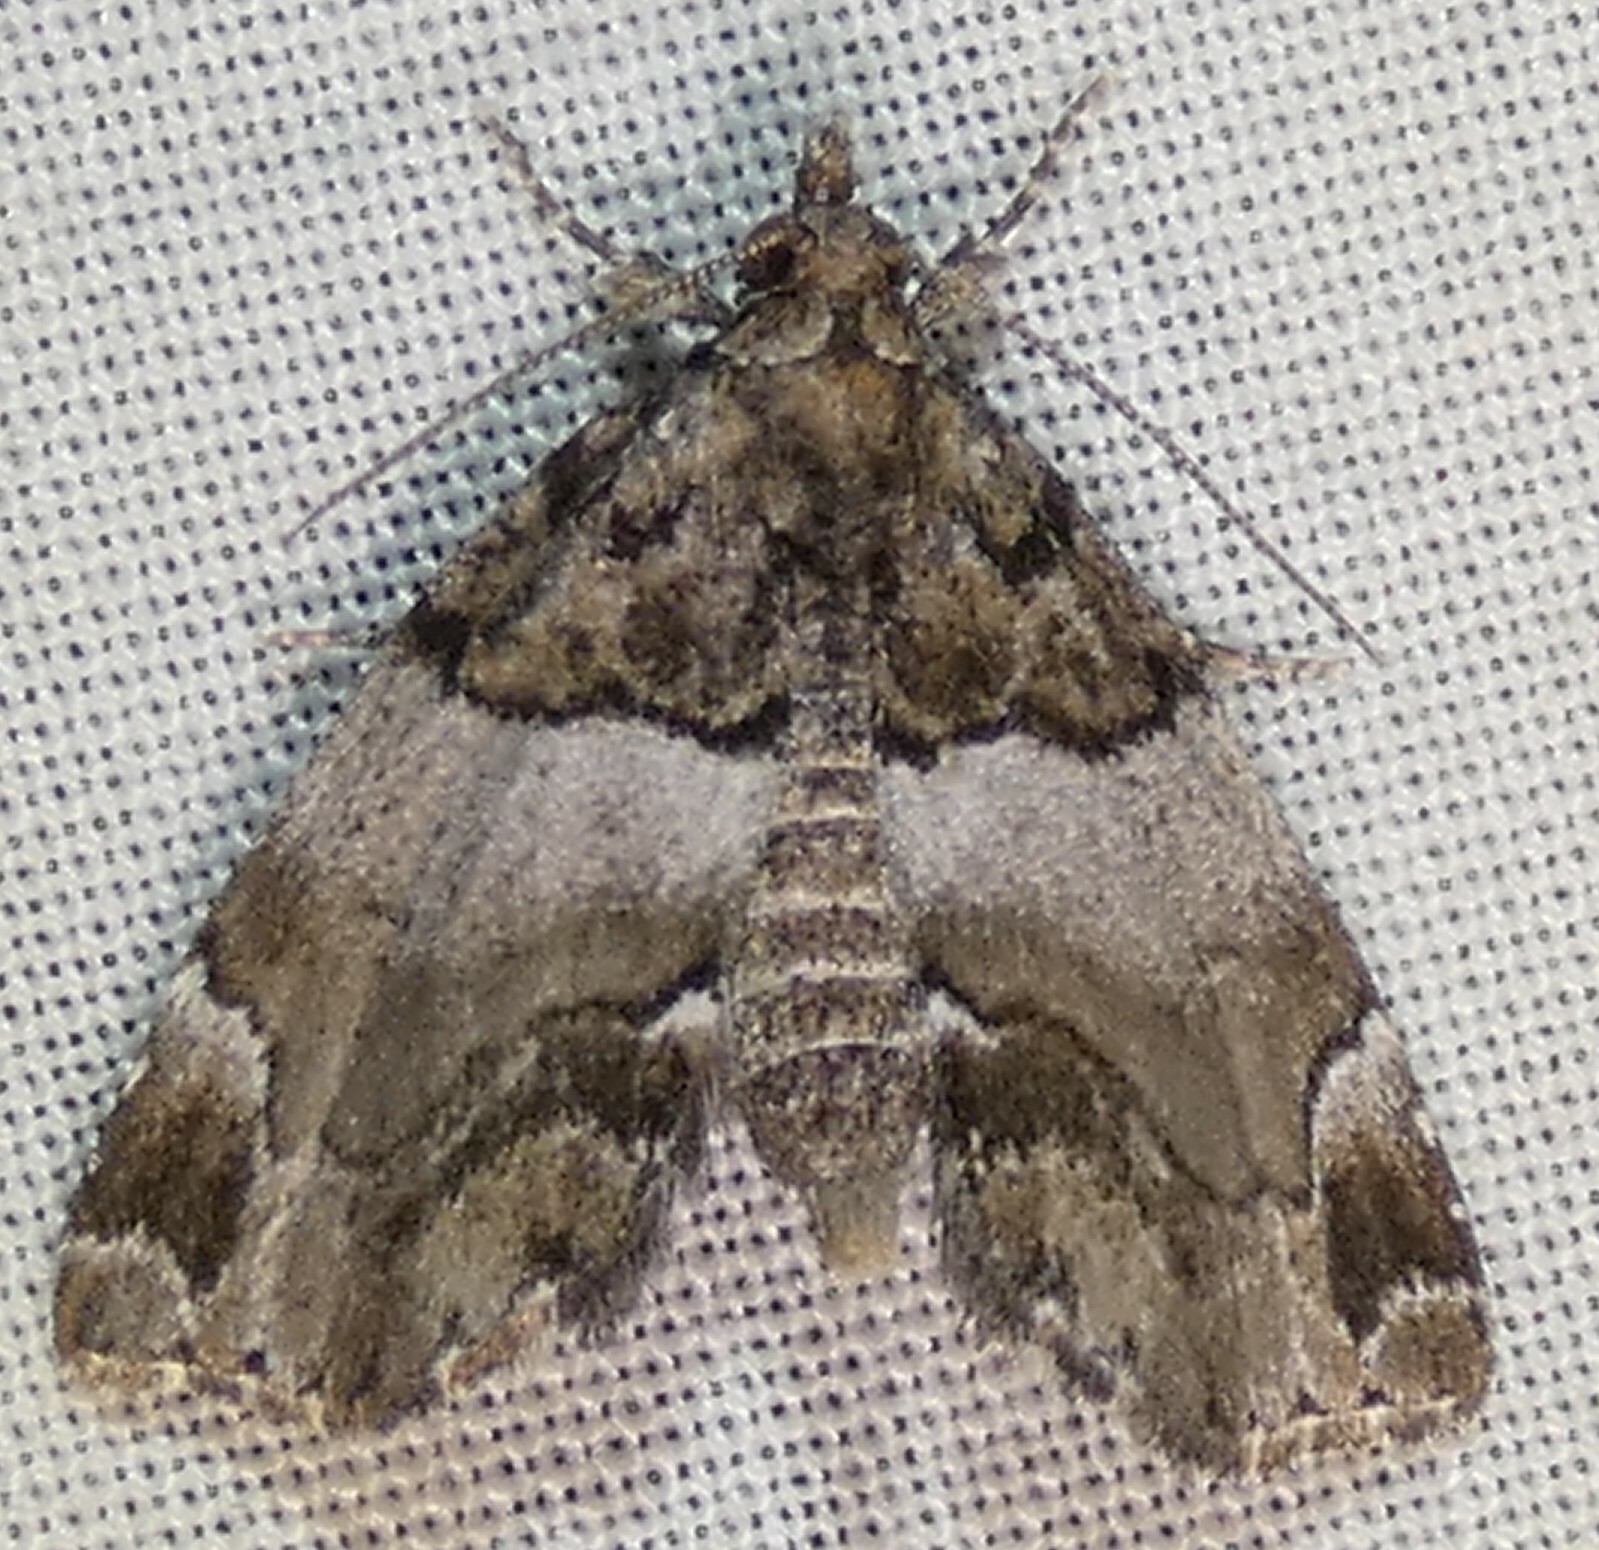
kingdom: Animalia
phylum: Arthropoda
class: Insecta
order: Lepidoptera
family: Erebidae
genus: Cutina
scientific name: Cutina distincta
